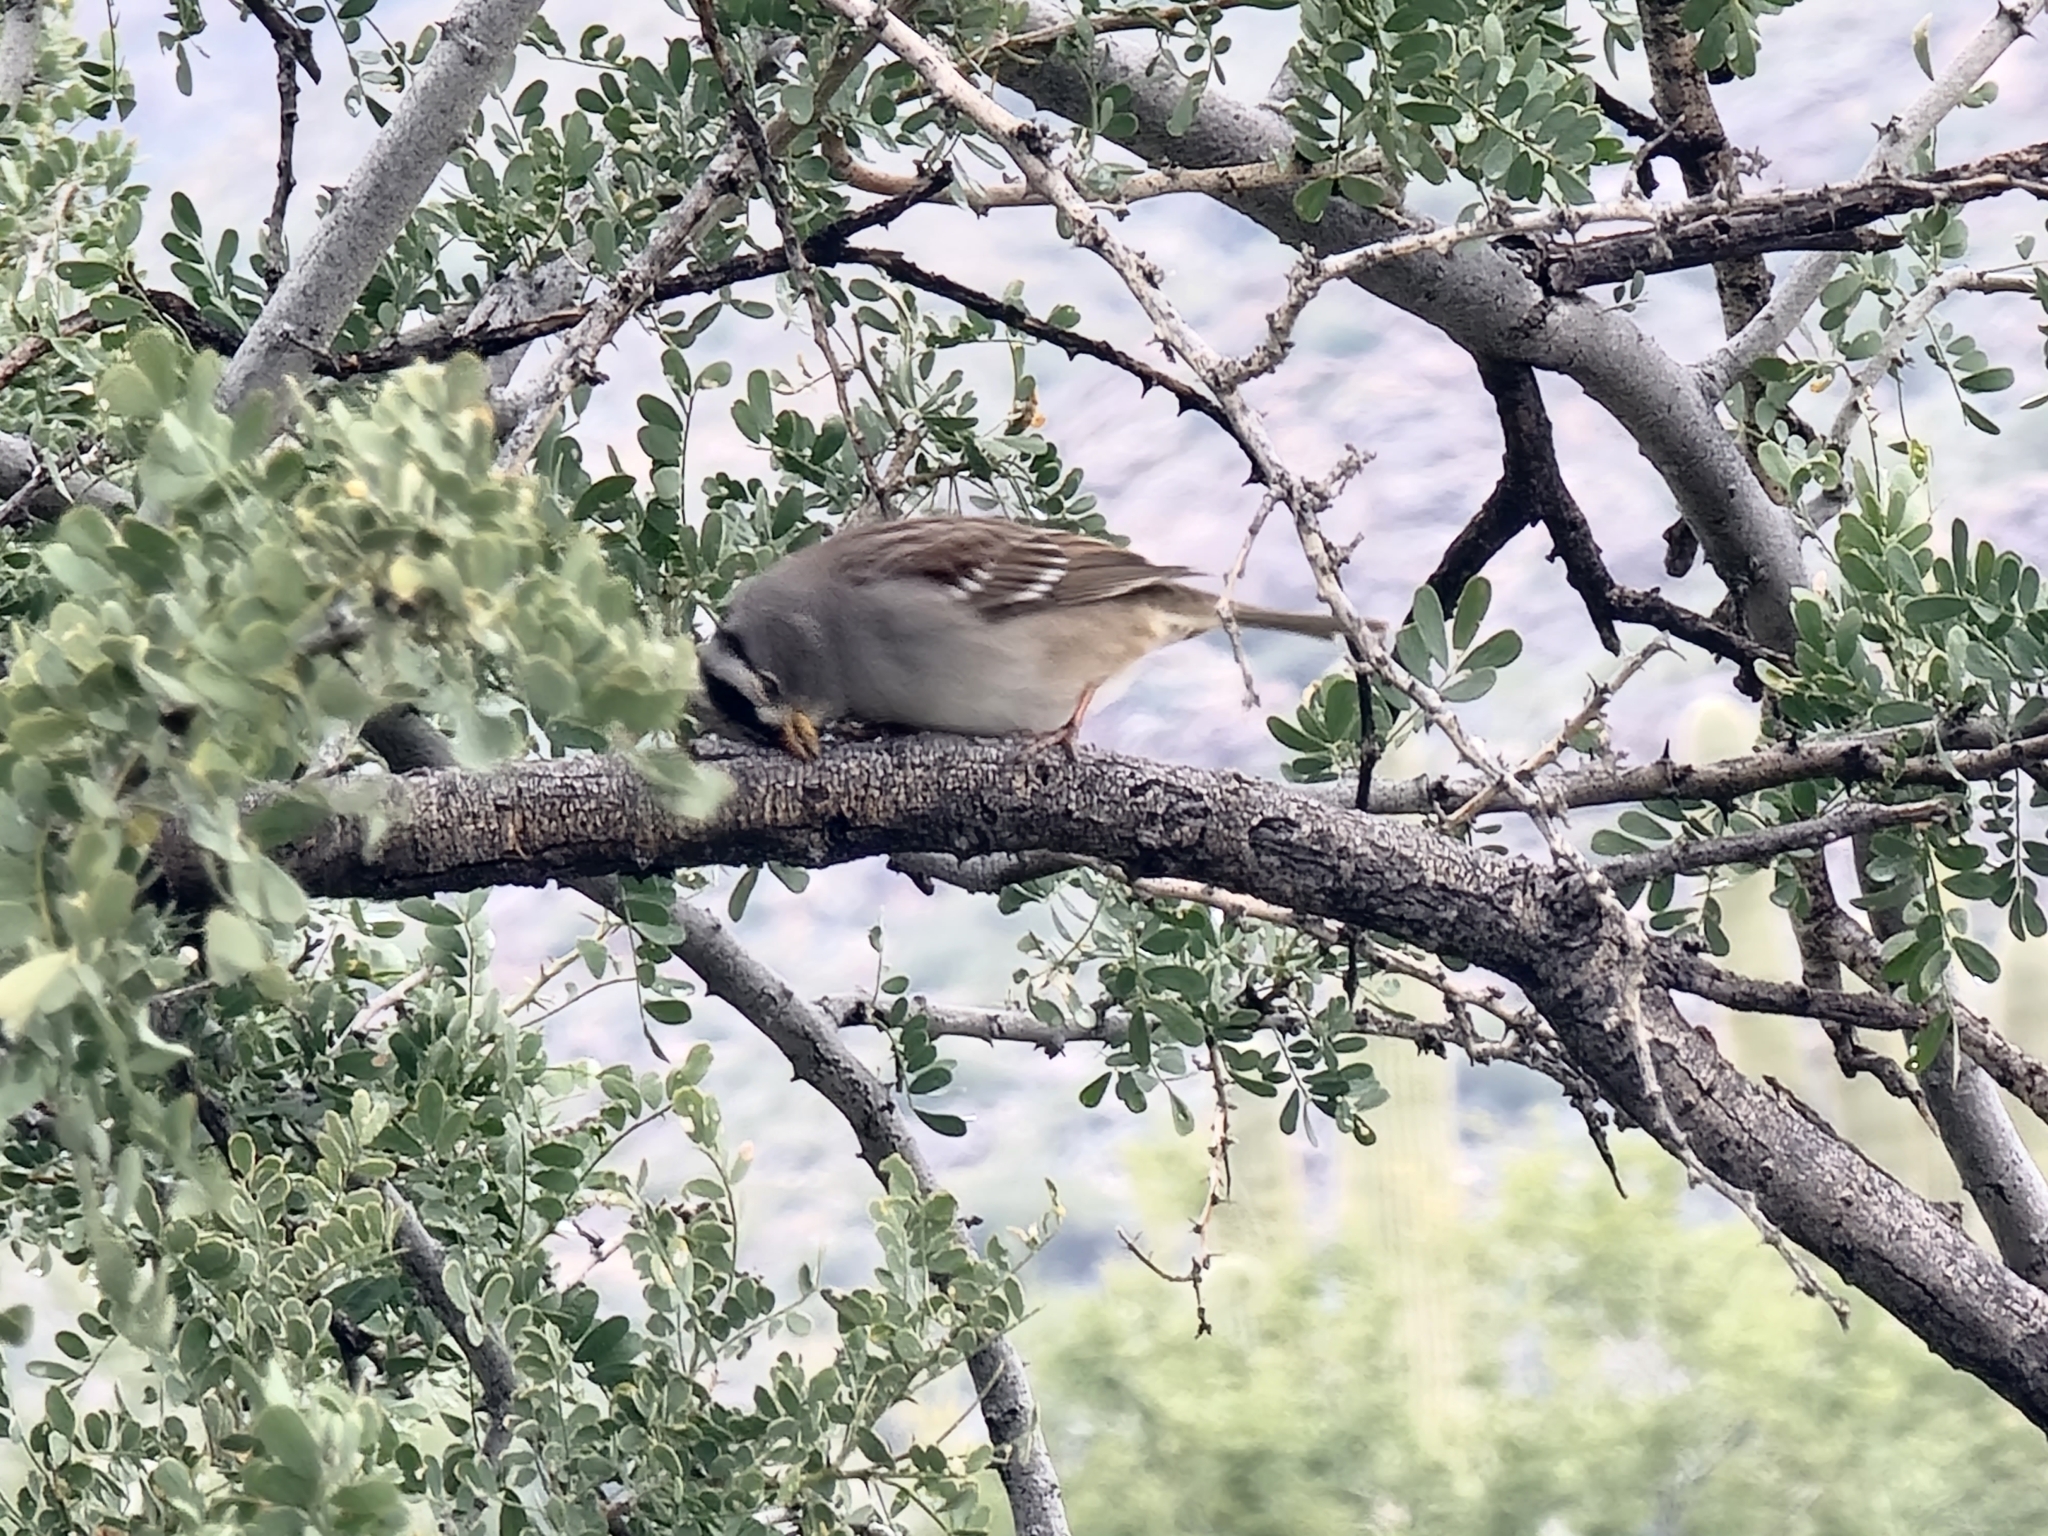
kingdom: Animalia
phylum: Chordata
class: Aves
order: Passeriformes
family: Passerellidae
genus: Zonotrichia
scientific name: Zonotrichia leucophrys
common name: White-crowned sparrow
